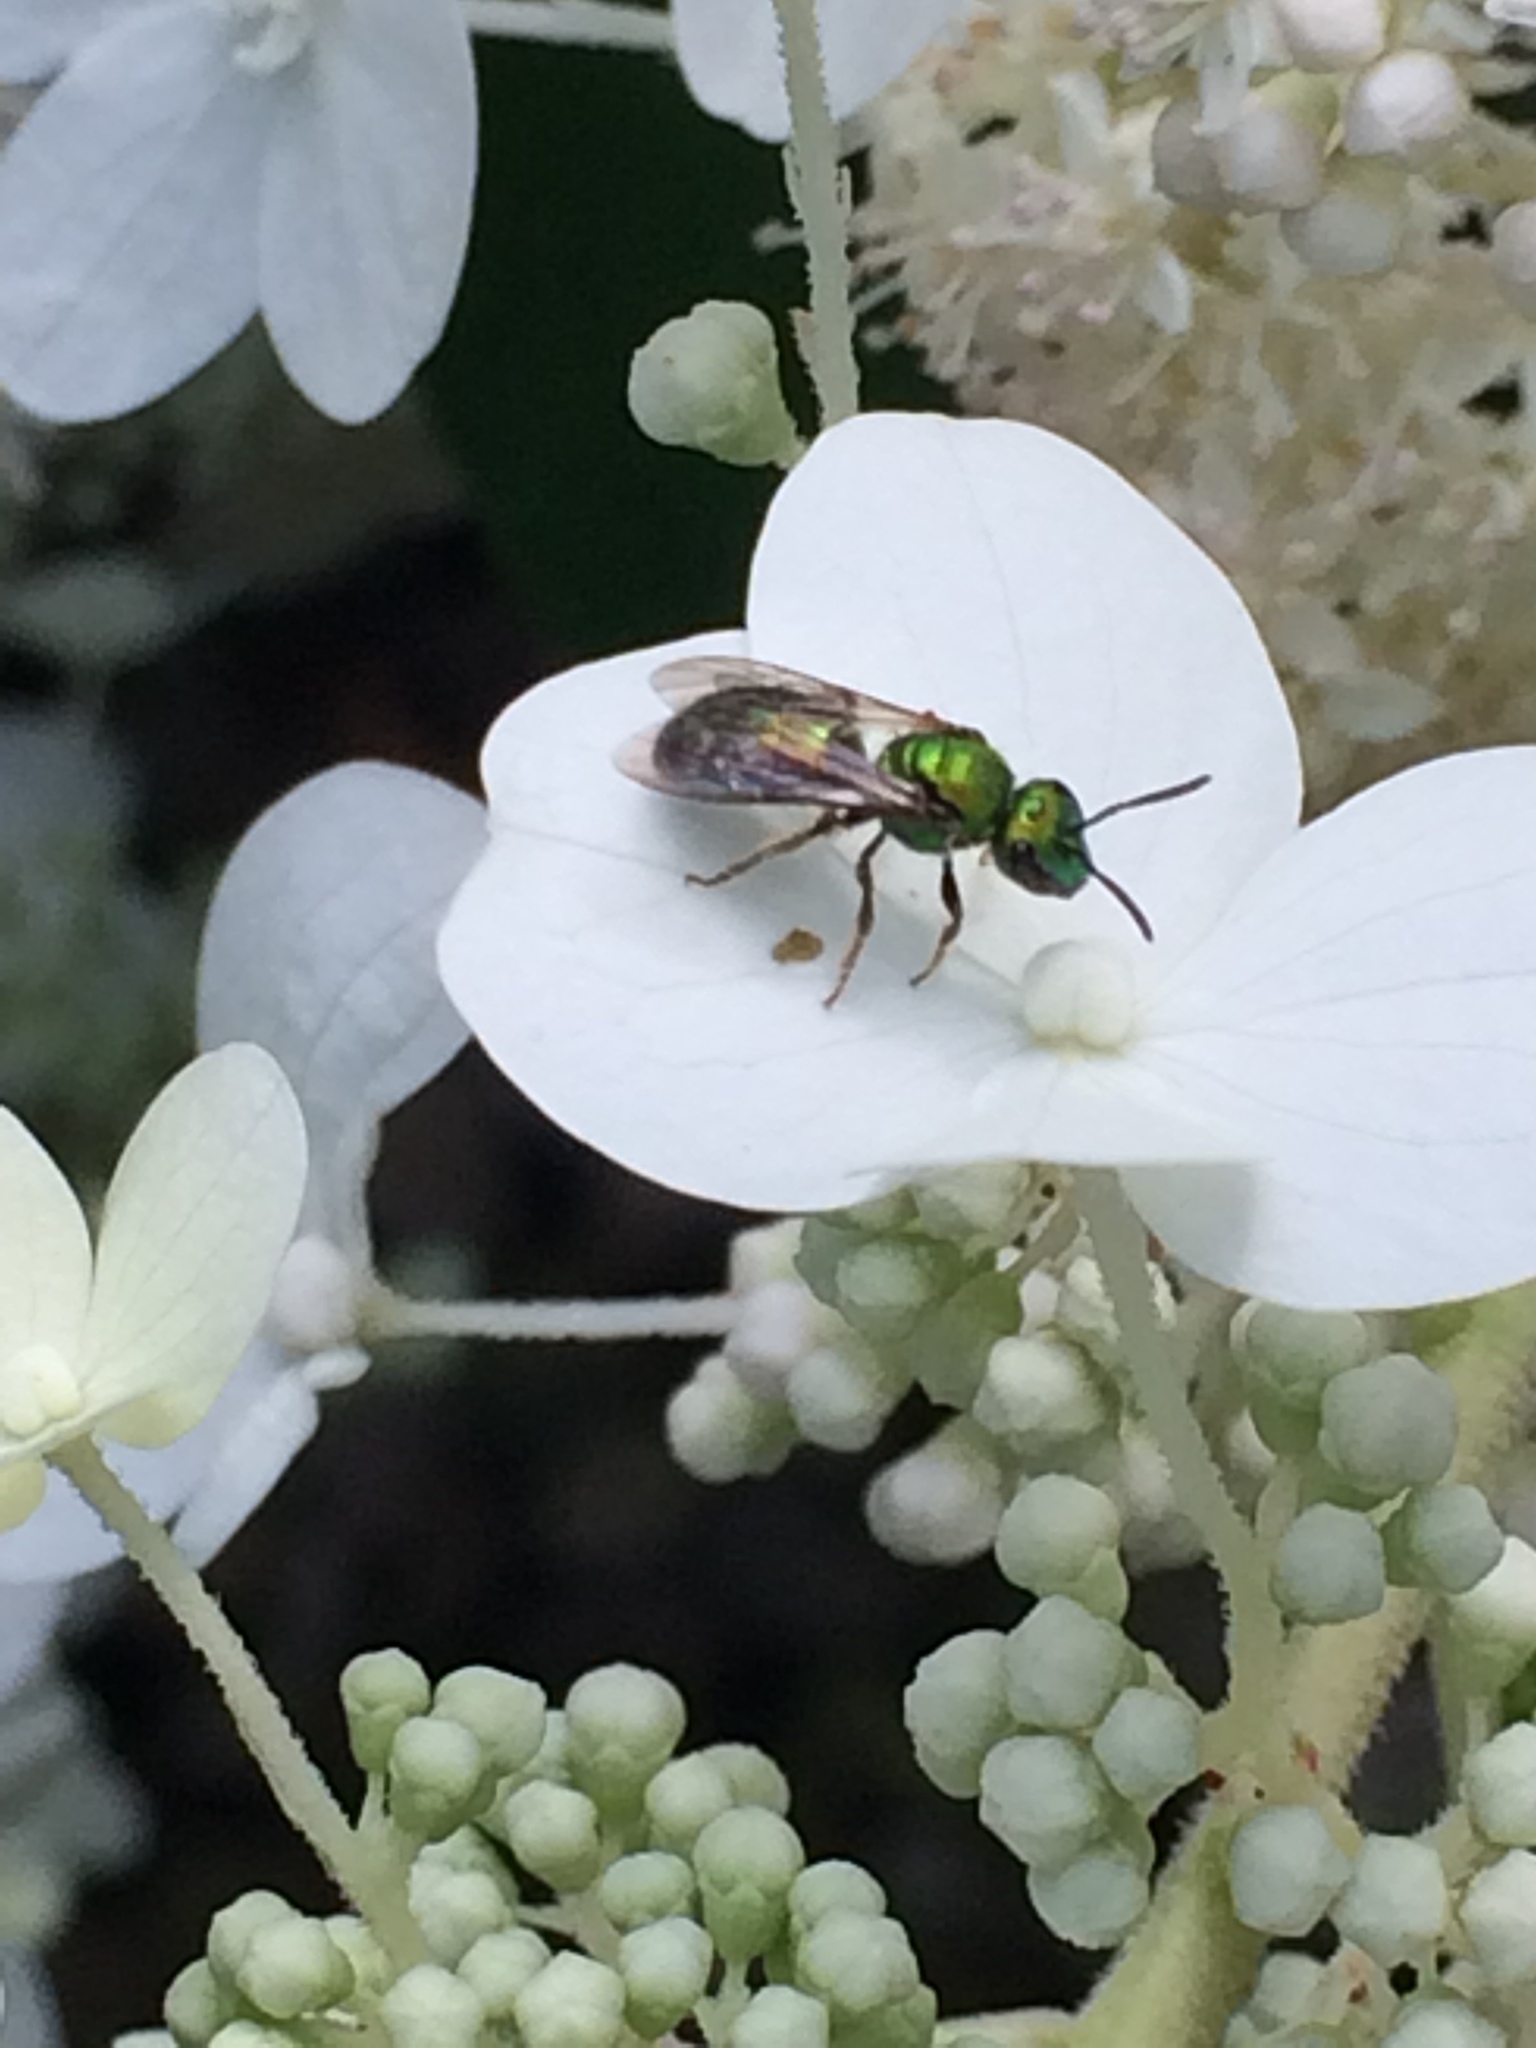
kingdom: Animalia
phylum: Arthropoda
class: Insecta
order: Hymenoptera
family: Halictidae
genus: Augochlora
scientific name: Augochlora pura
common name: Pure green sweat bee
